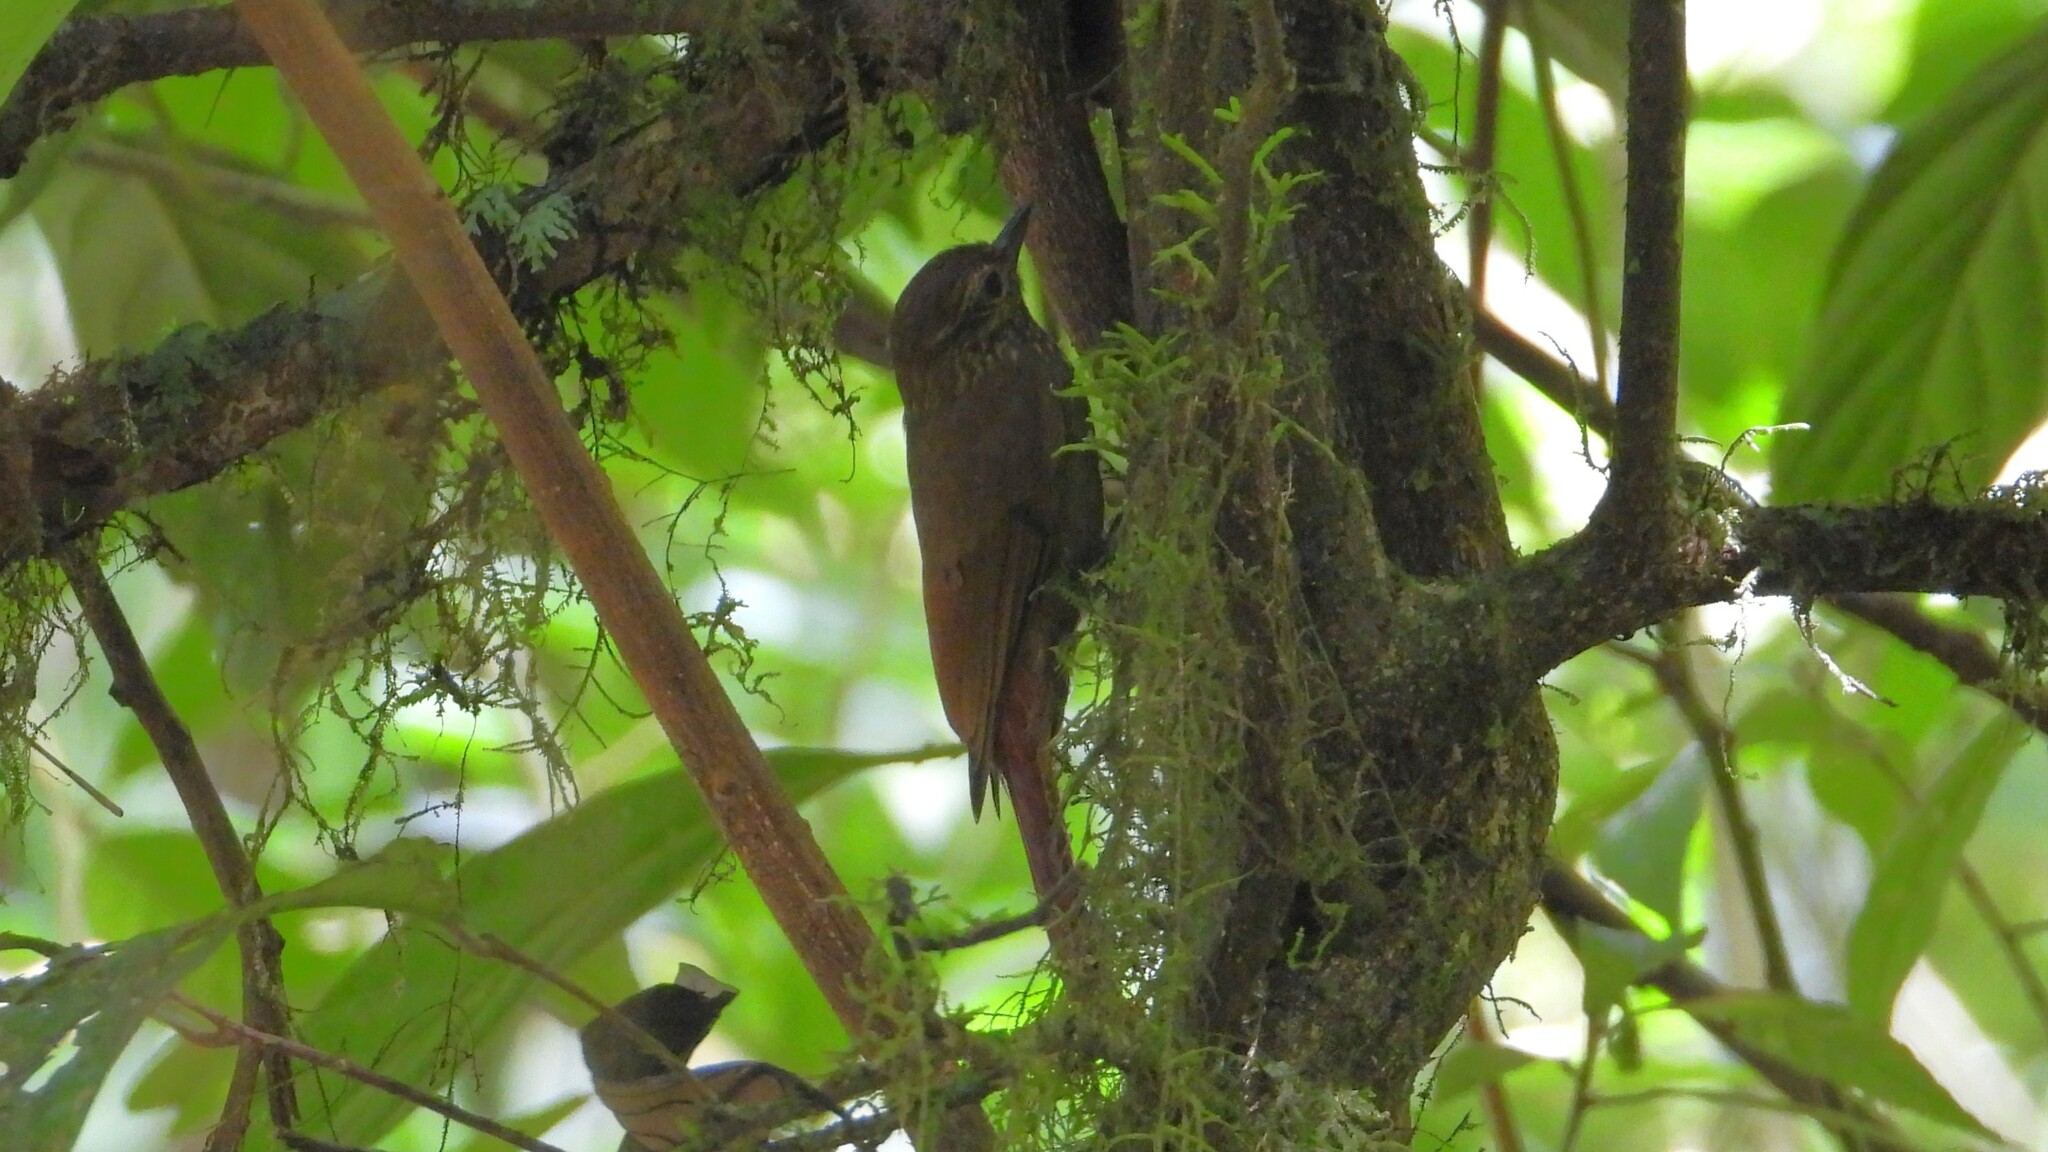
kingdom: Animalia
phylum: Chordata
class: Aves
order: Passeriformes
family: Furnariidae
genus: Glyphorynchus
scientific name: Glyphorynchus spirurus
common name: Wedge-billed woodcreeper
